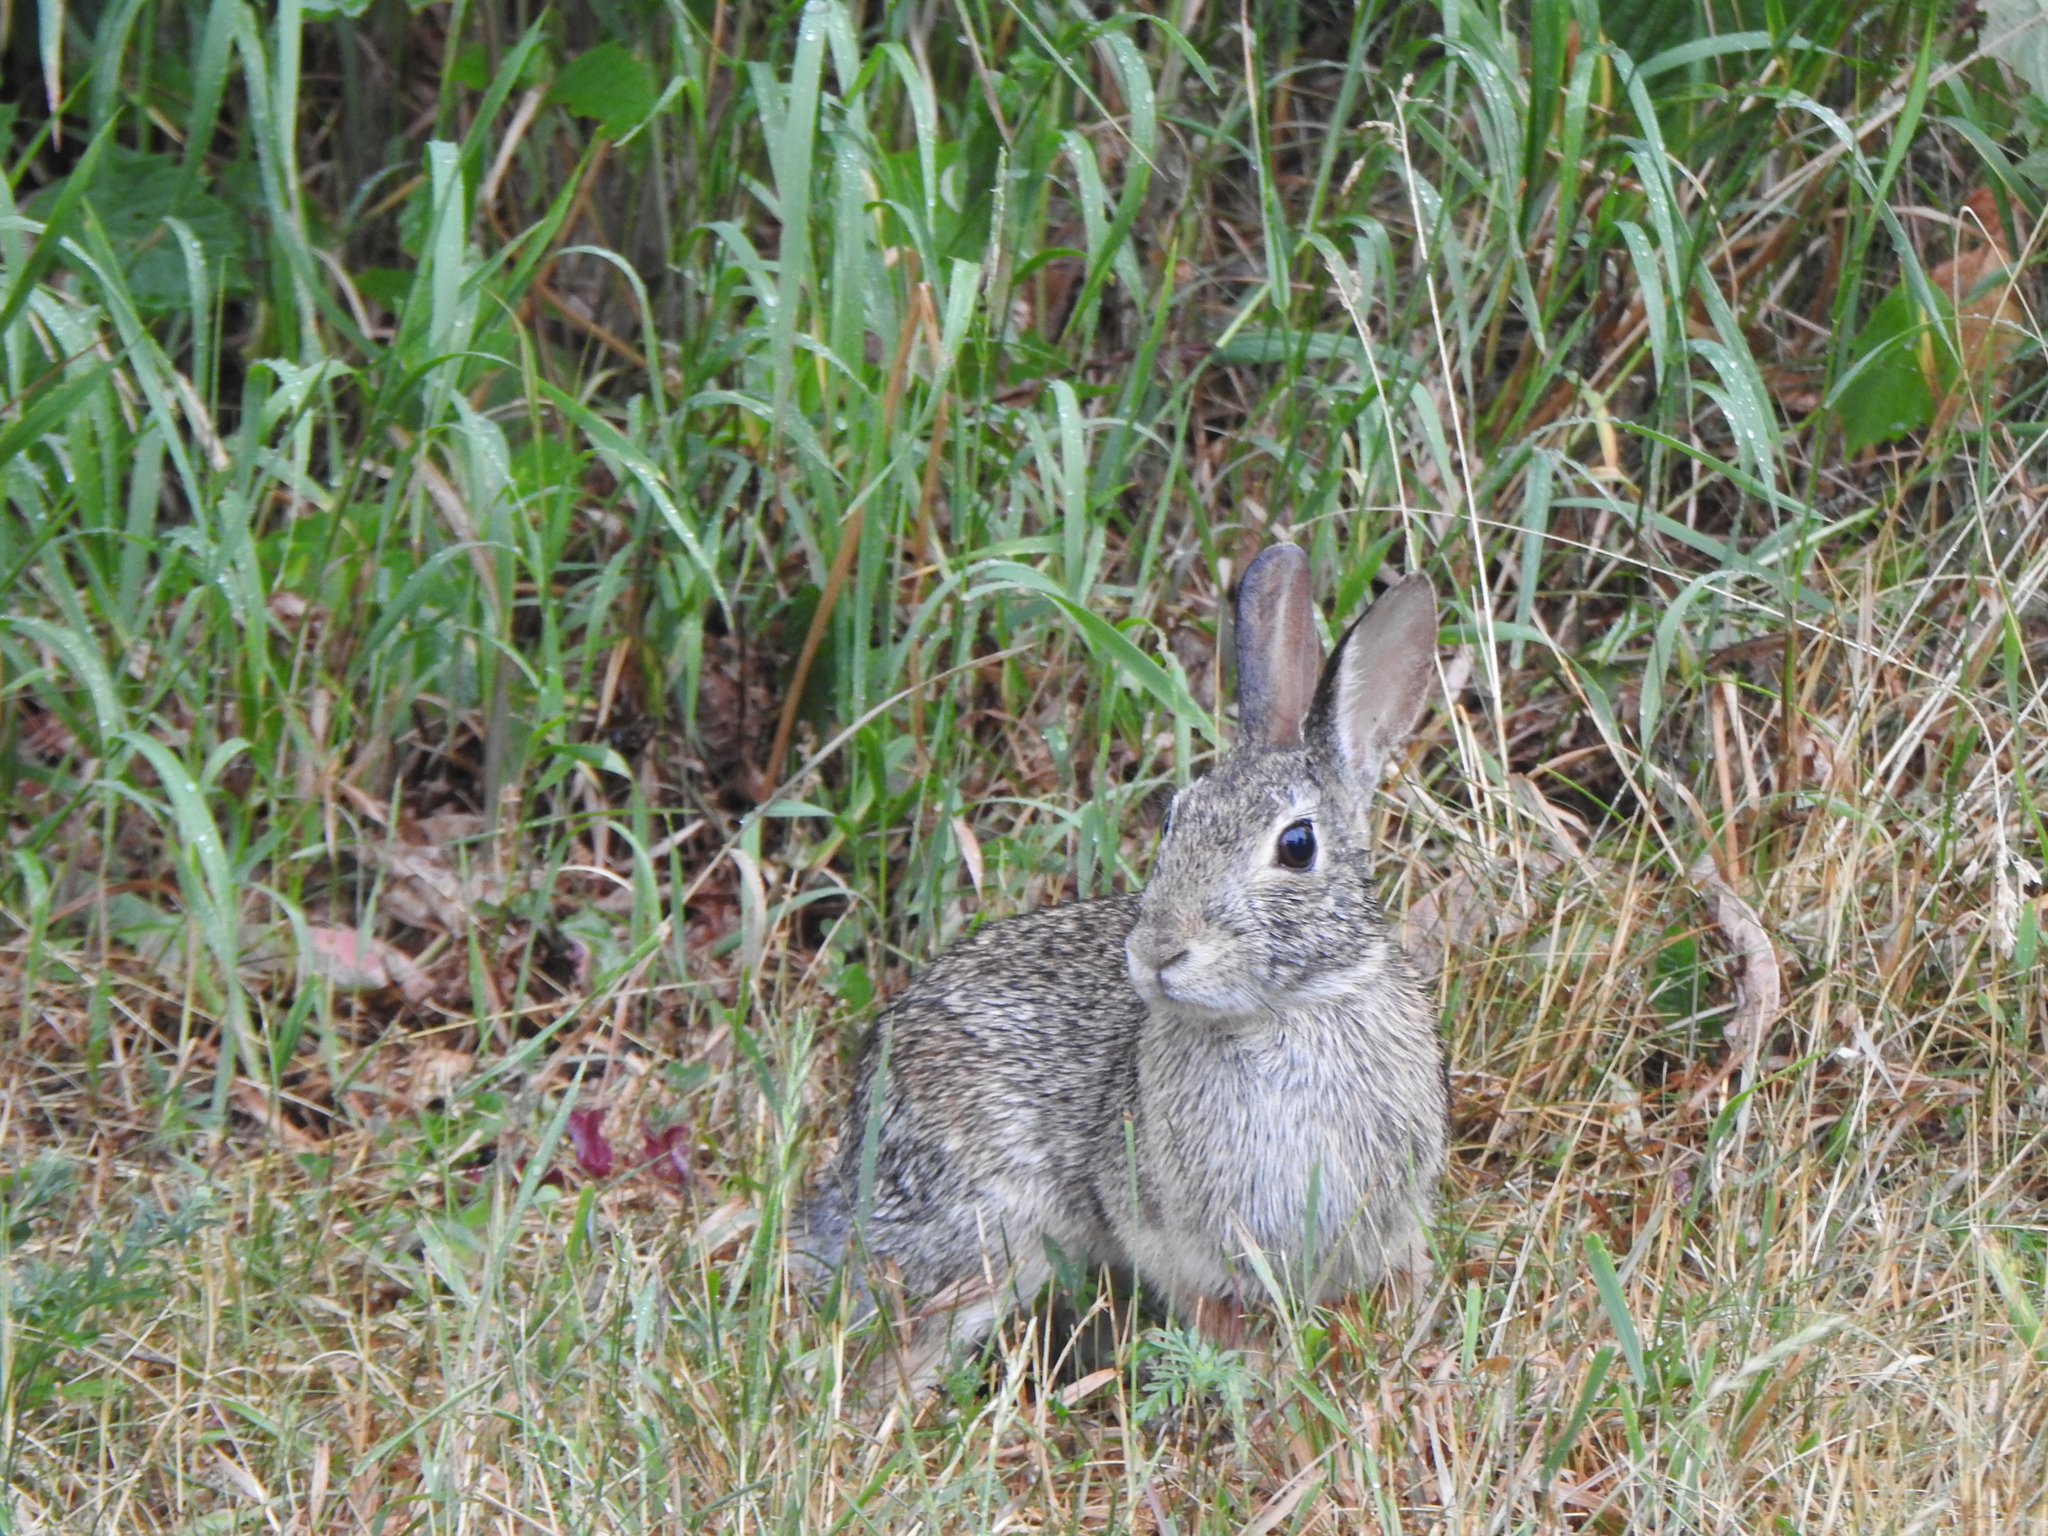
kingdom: Animalia
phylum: Chordata
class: Mammalia
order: Lagomorpha
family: Leporidae
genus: Sylvilagus
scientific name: Sylvilagus floridanus
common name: Eastern cottontail
